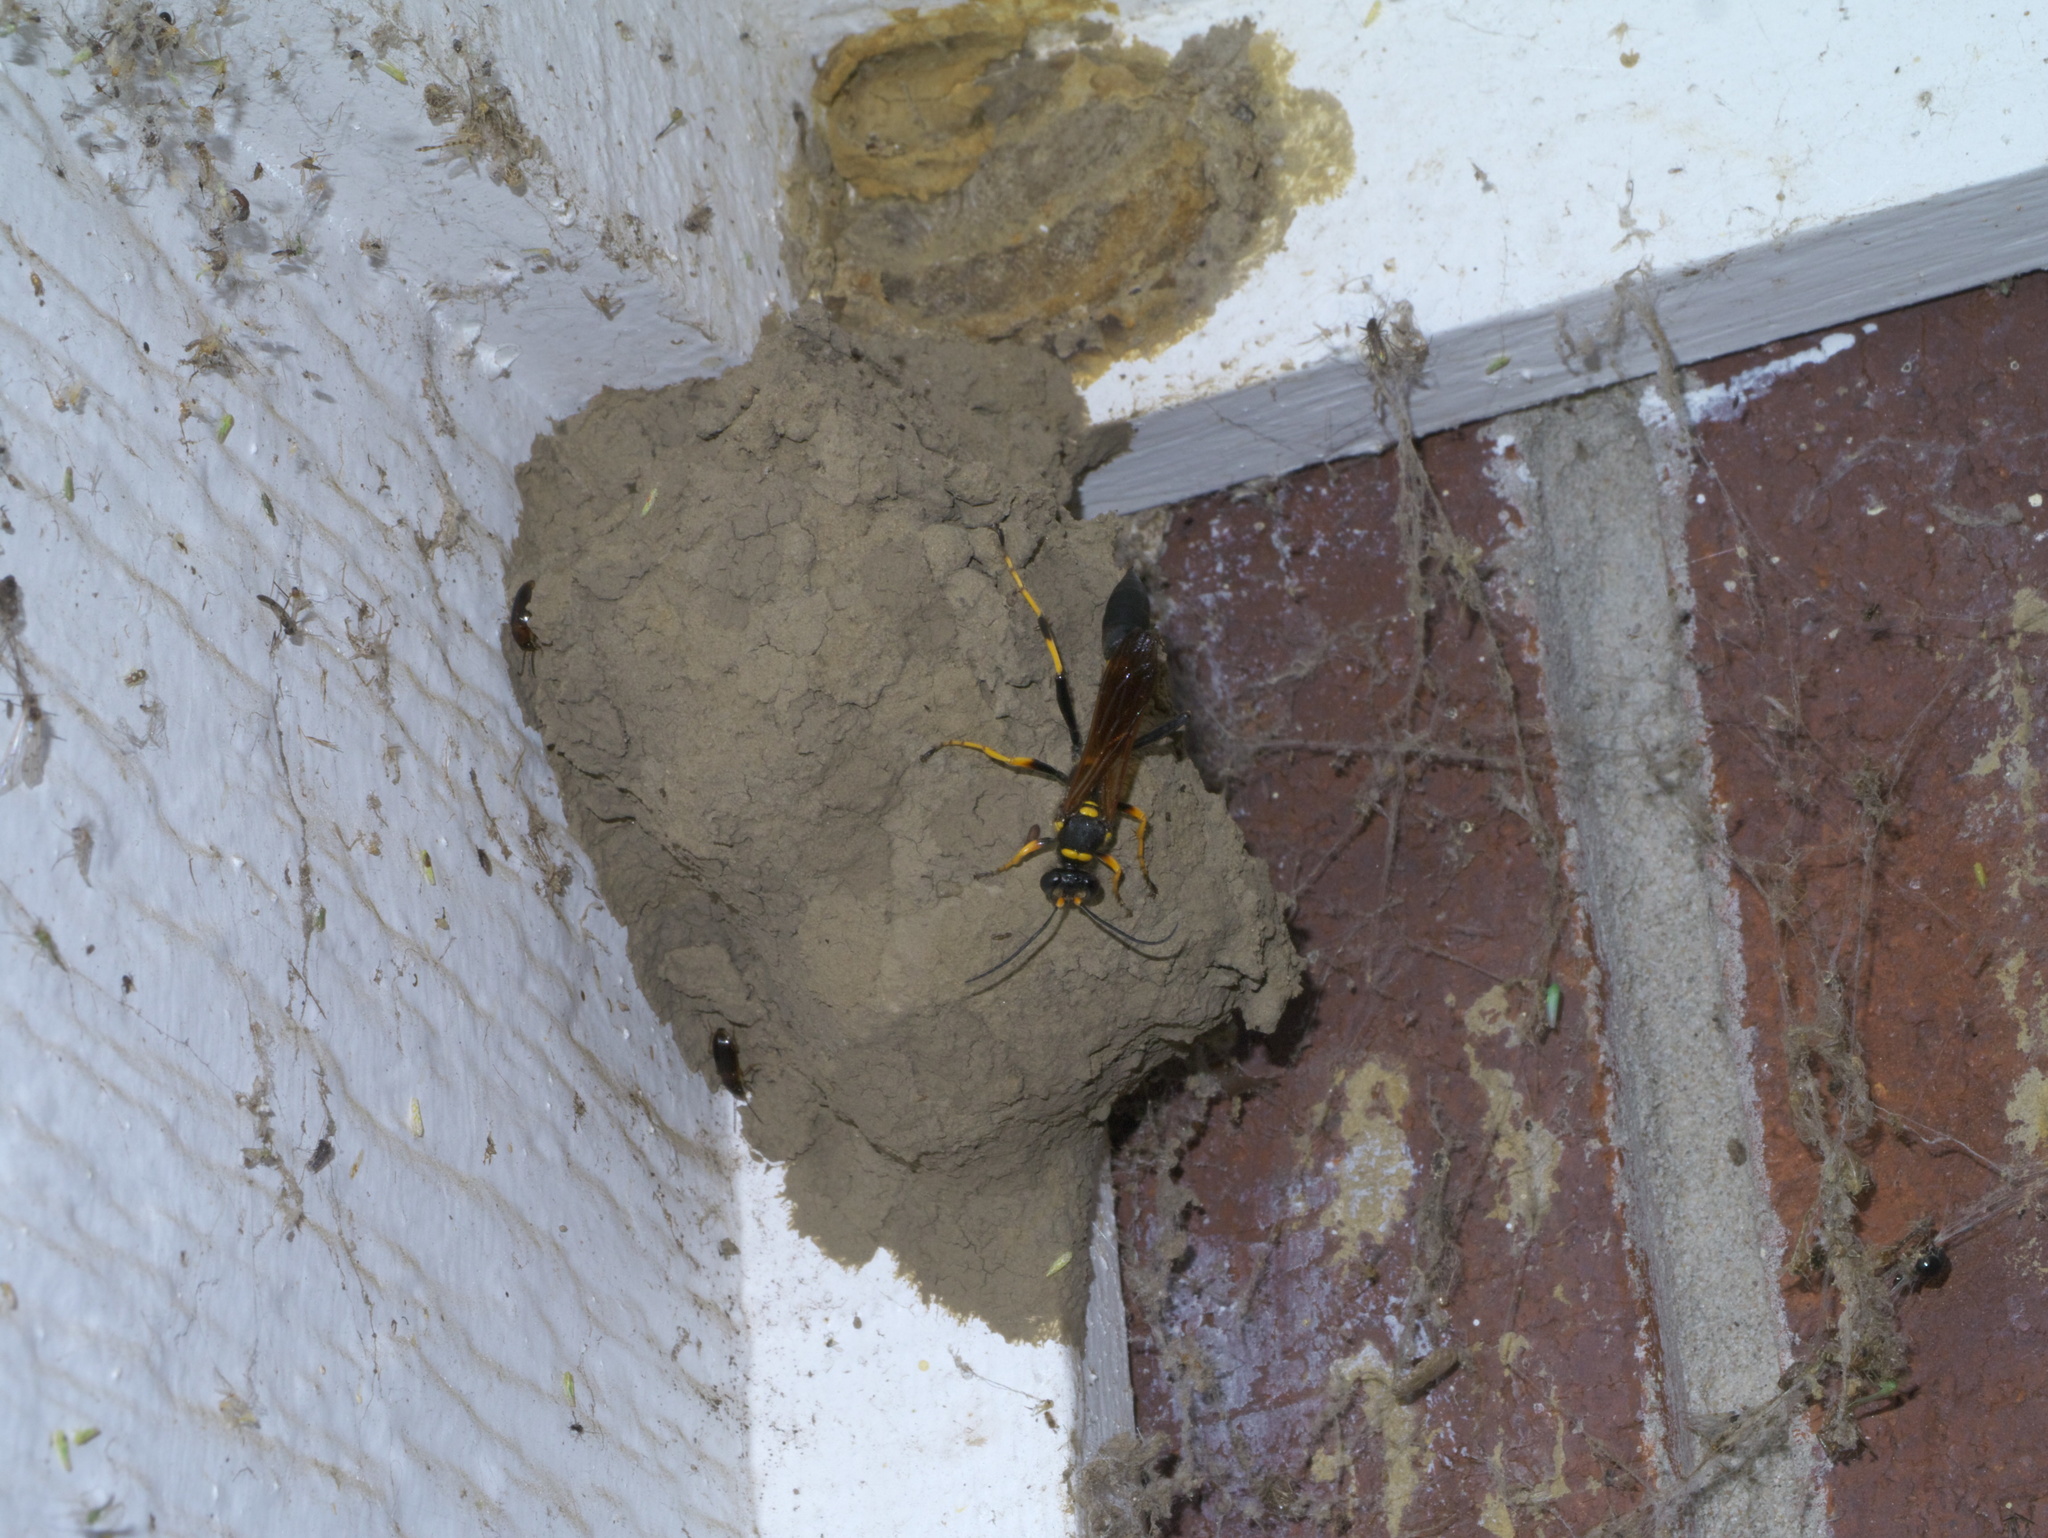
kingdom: Animalia
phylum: Arthropoda
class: Insecta
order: Hymenoptera
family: Sphecidae
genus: Sceliphron
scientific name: Sceliphron caementarium
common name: Mud dauber
